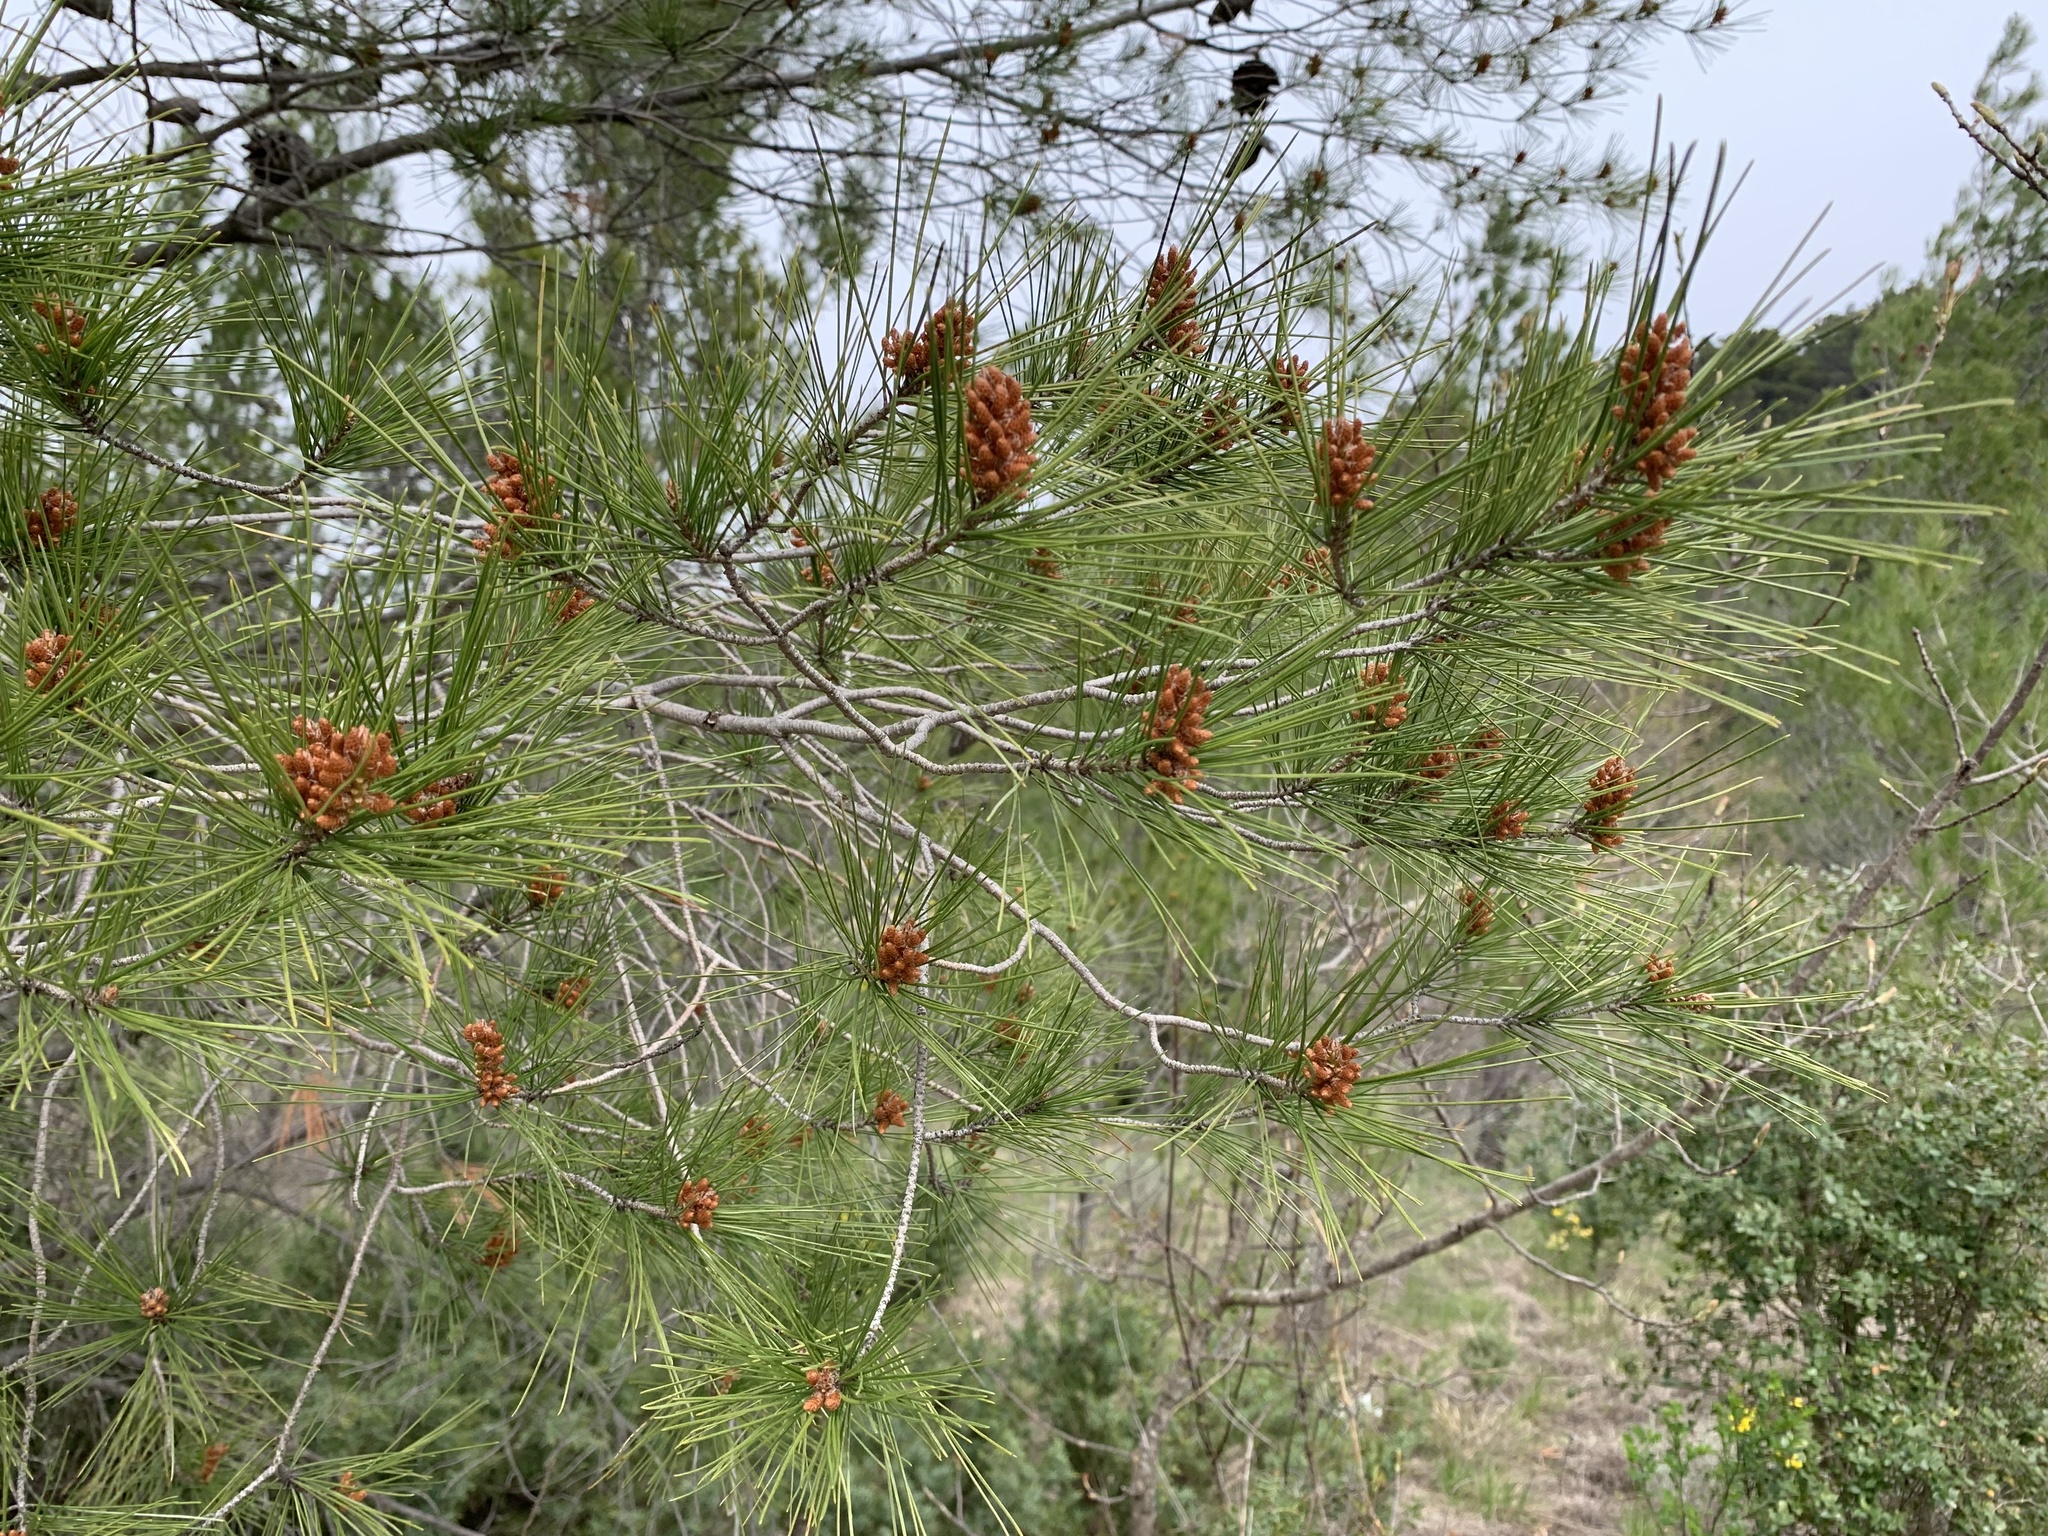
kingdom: Plantae
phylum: Tracheophyta
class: Pinopsida
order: Pinales
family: Pinaceae
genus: Pinus
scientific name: Pinus halepensis
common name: Aleppo pine
